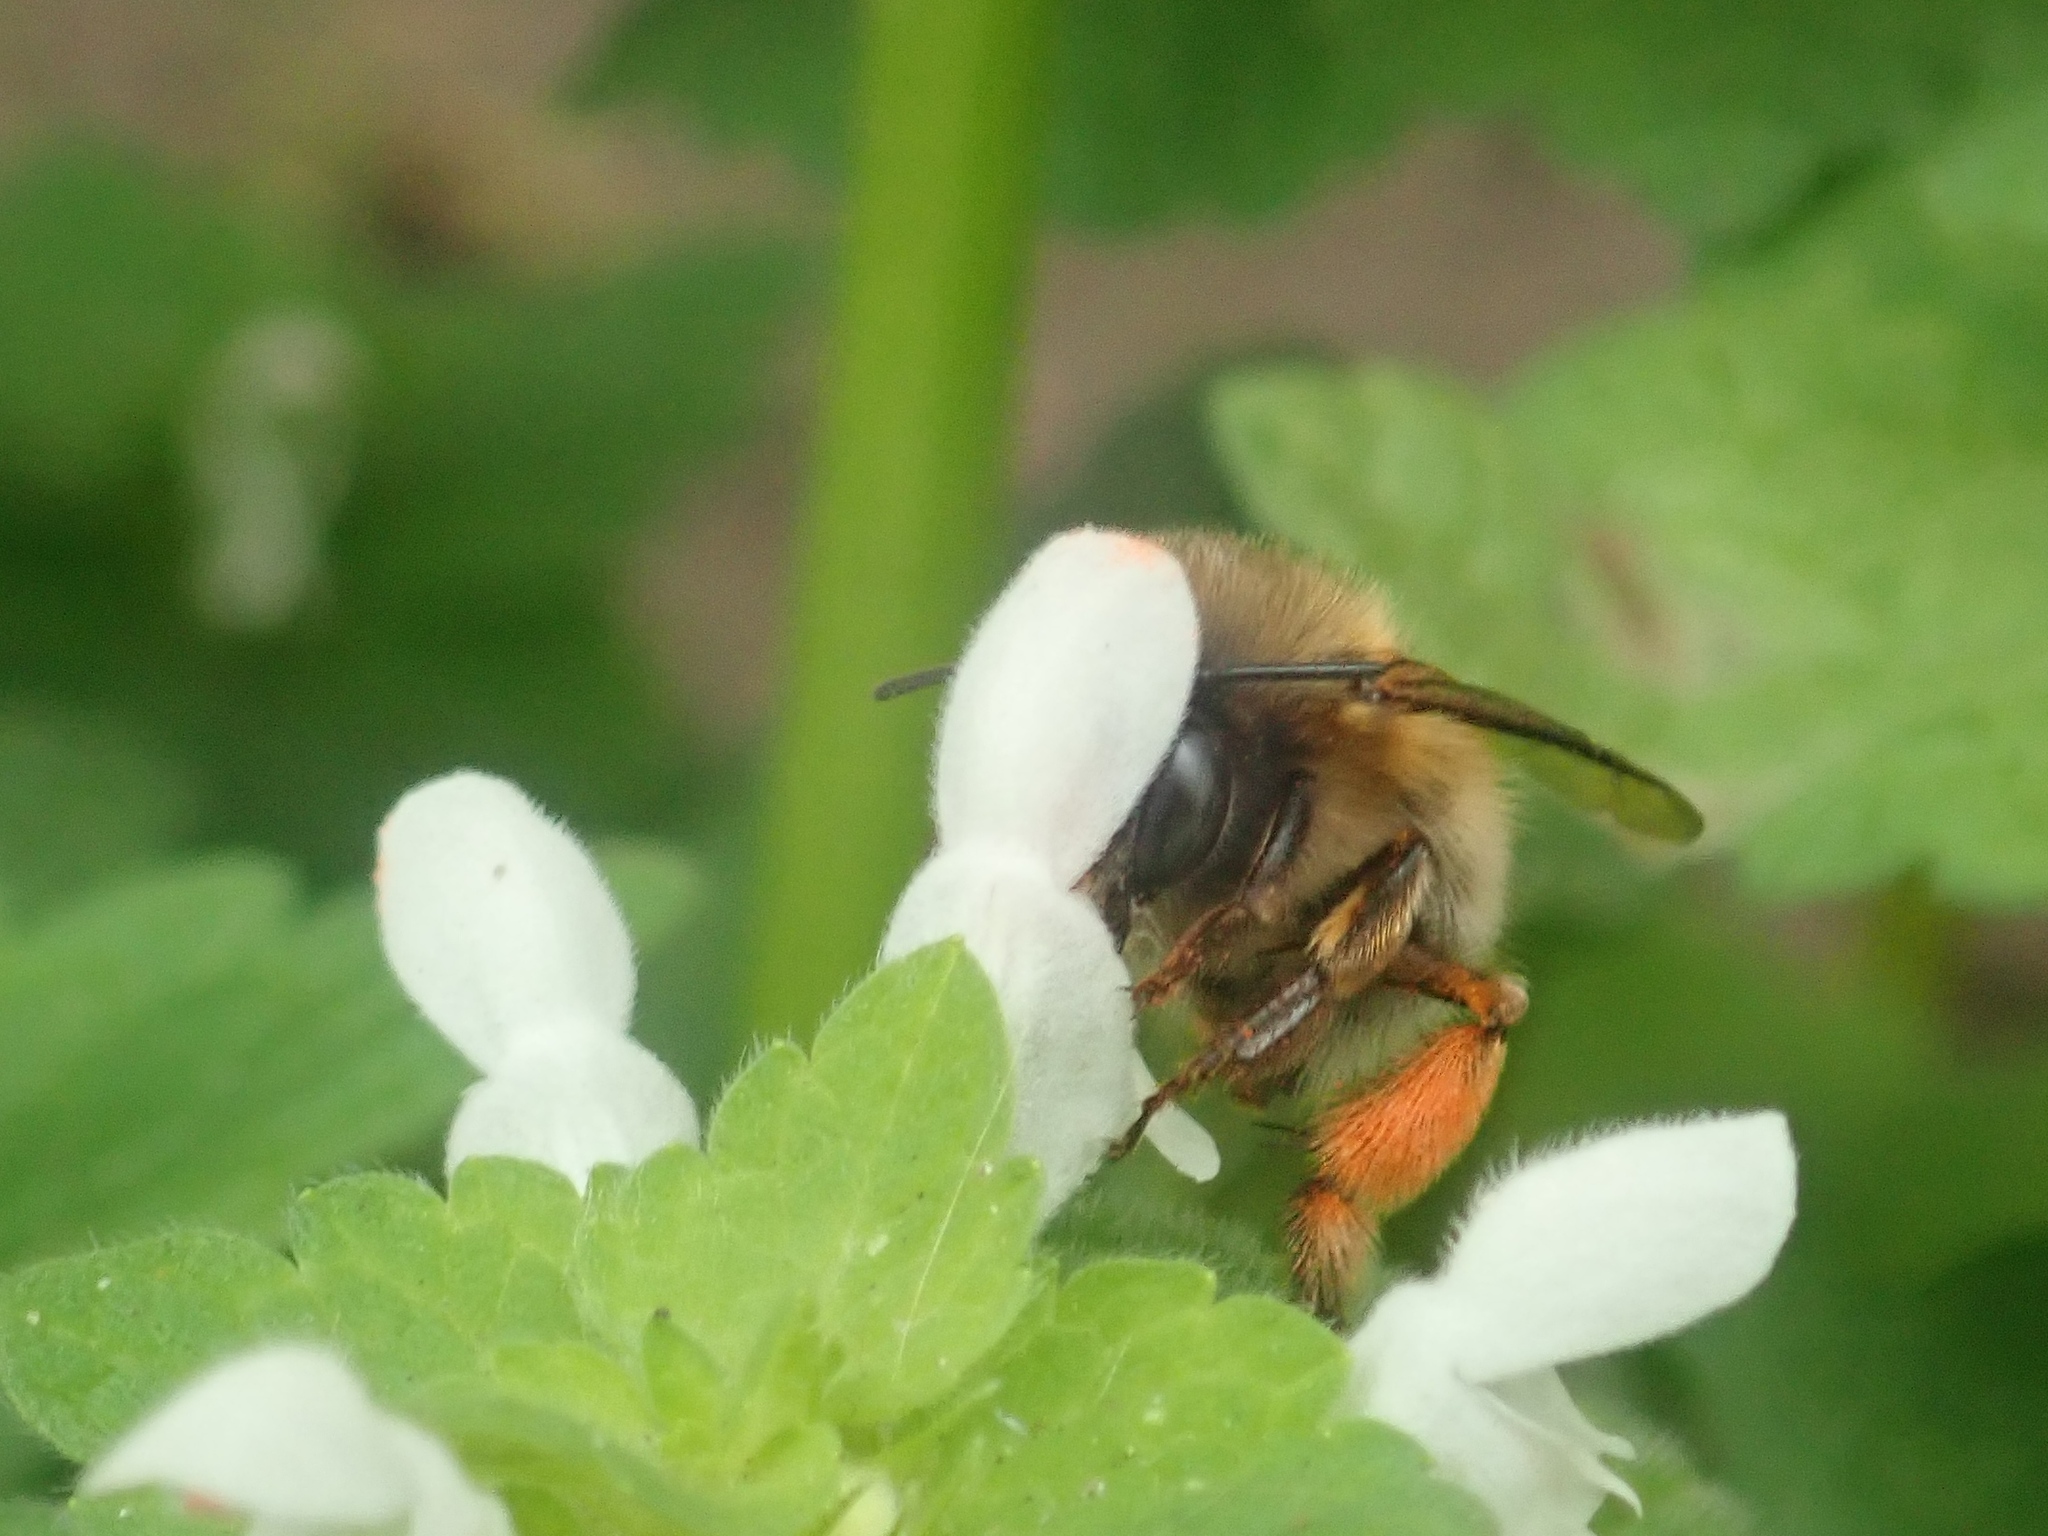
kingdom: Animalia
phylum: Arthropoda
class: Insecta
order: Hymenoptera
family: Apidae
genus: Anthophora
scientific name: Anthophora plumipes
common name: Hairy-footed flower bee
